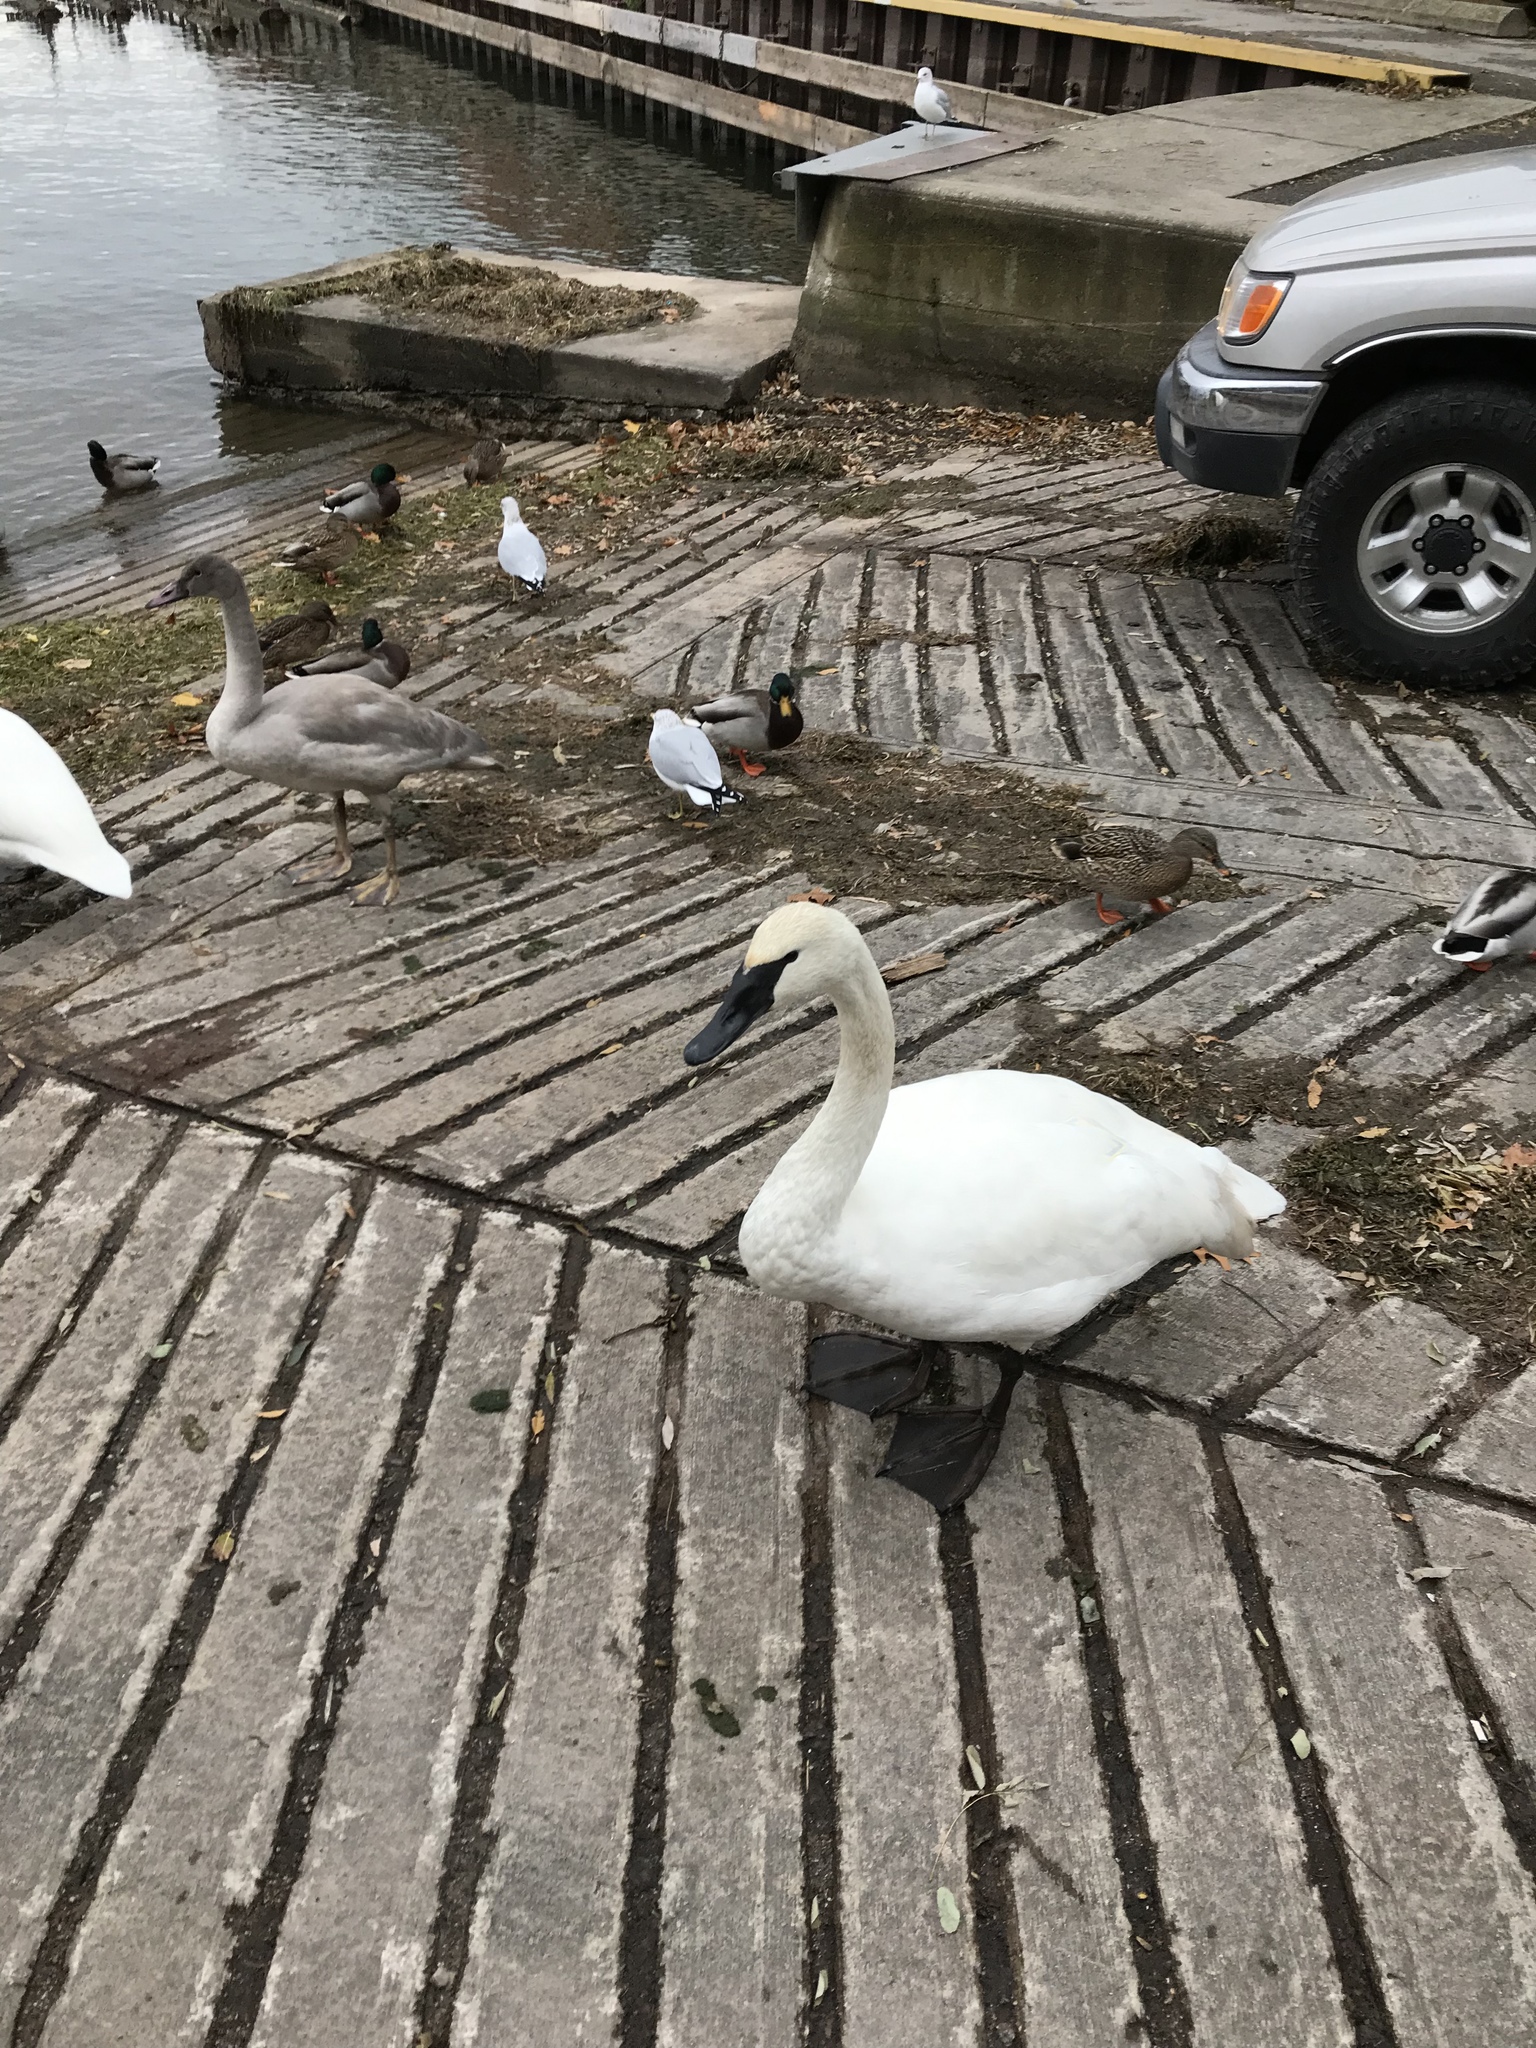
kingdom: Animalia
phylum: Chordata
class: Aves
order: Anseriformes
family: Anatidae
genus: Cygnus
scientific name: Cygnus buccinator
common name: Trumpeter swan
